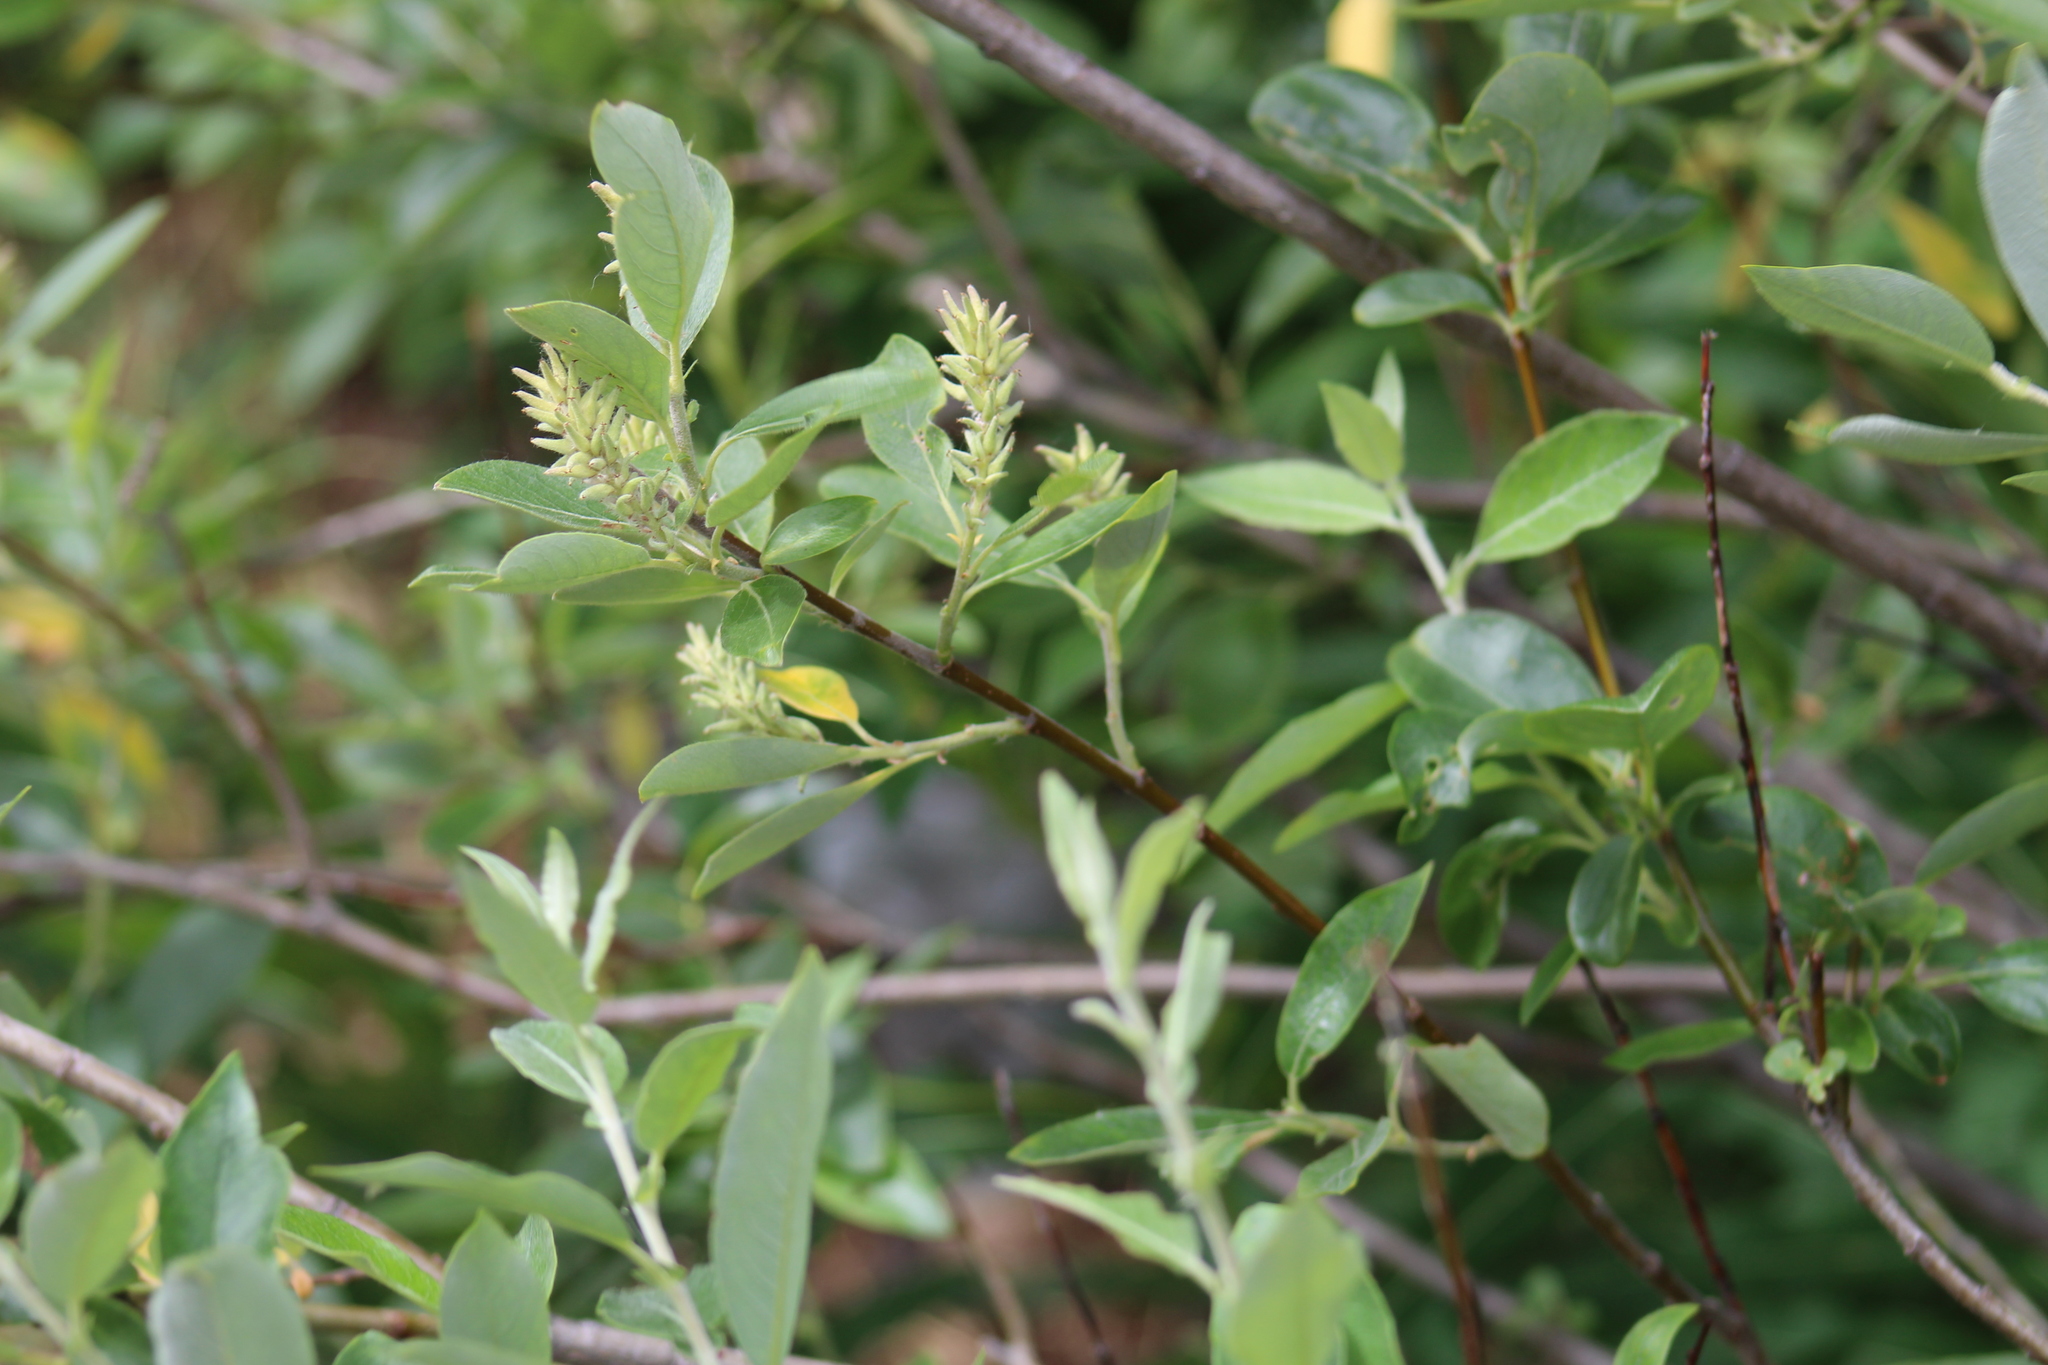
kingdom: Plantae
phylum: Tracheophyta
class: Magnoliopsida
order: Malpighiales
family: Salicaceae
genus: Salix
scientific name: Salix glauca
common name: Glaucous willow
